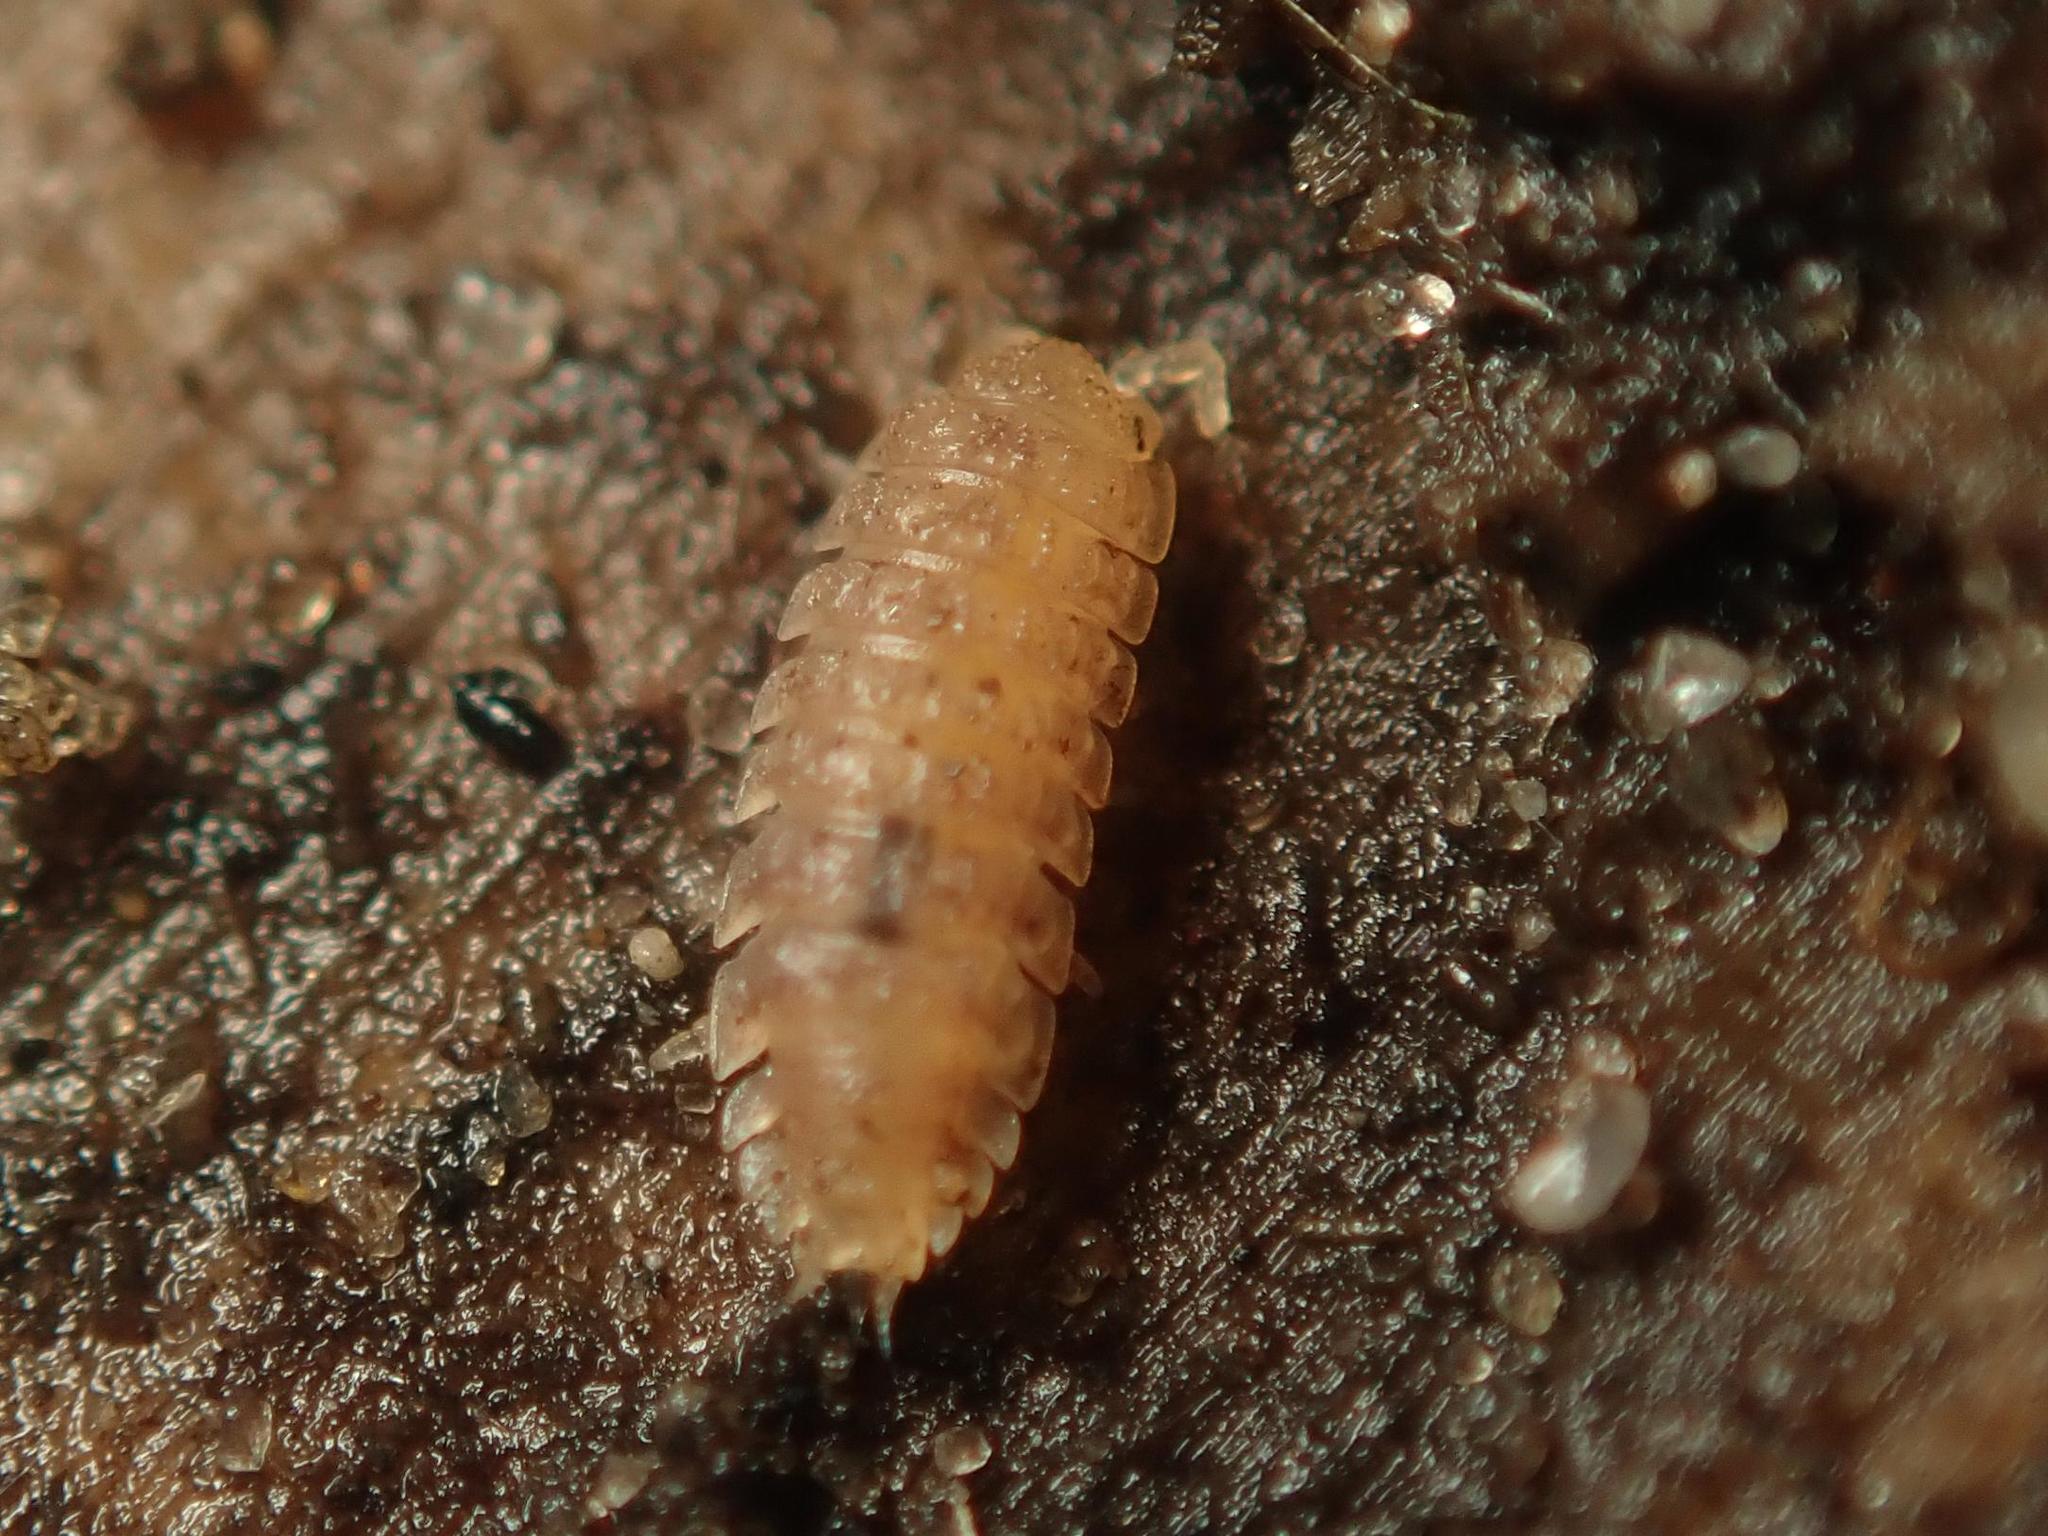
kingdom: Animalia
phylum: Arthropoda
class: Malacostraca
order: Isopoda
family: Trichoniscidae
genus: Haplophthalmus
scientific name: Haplophthalmus danicus
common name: Pillbug
